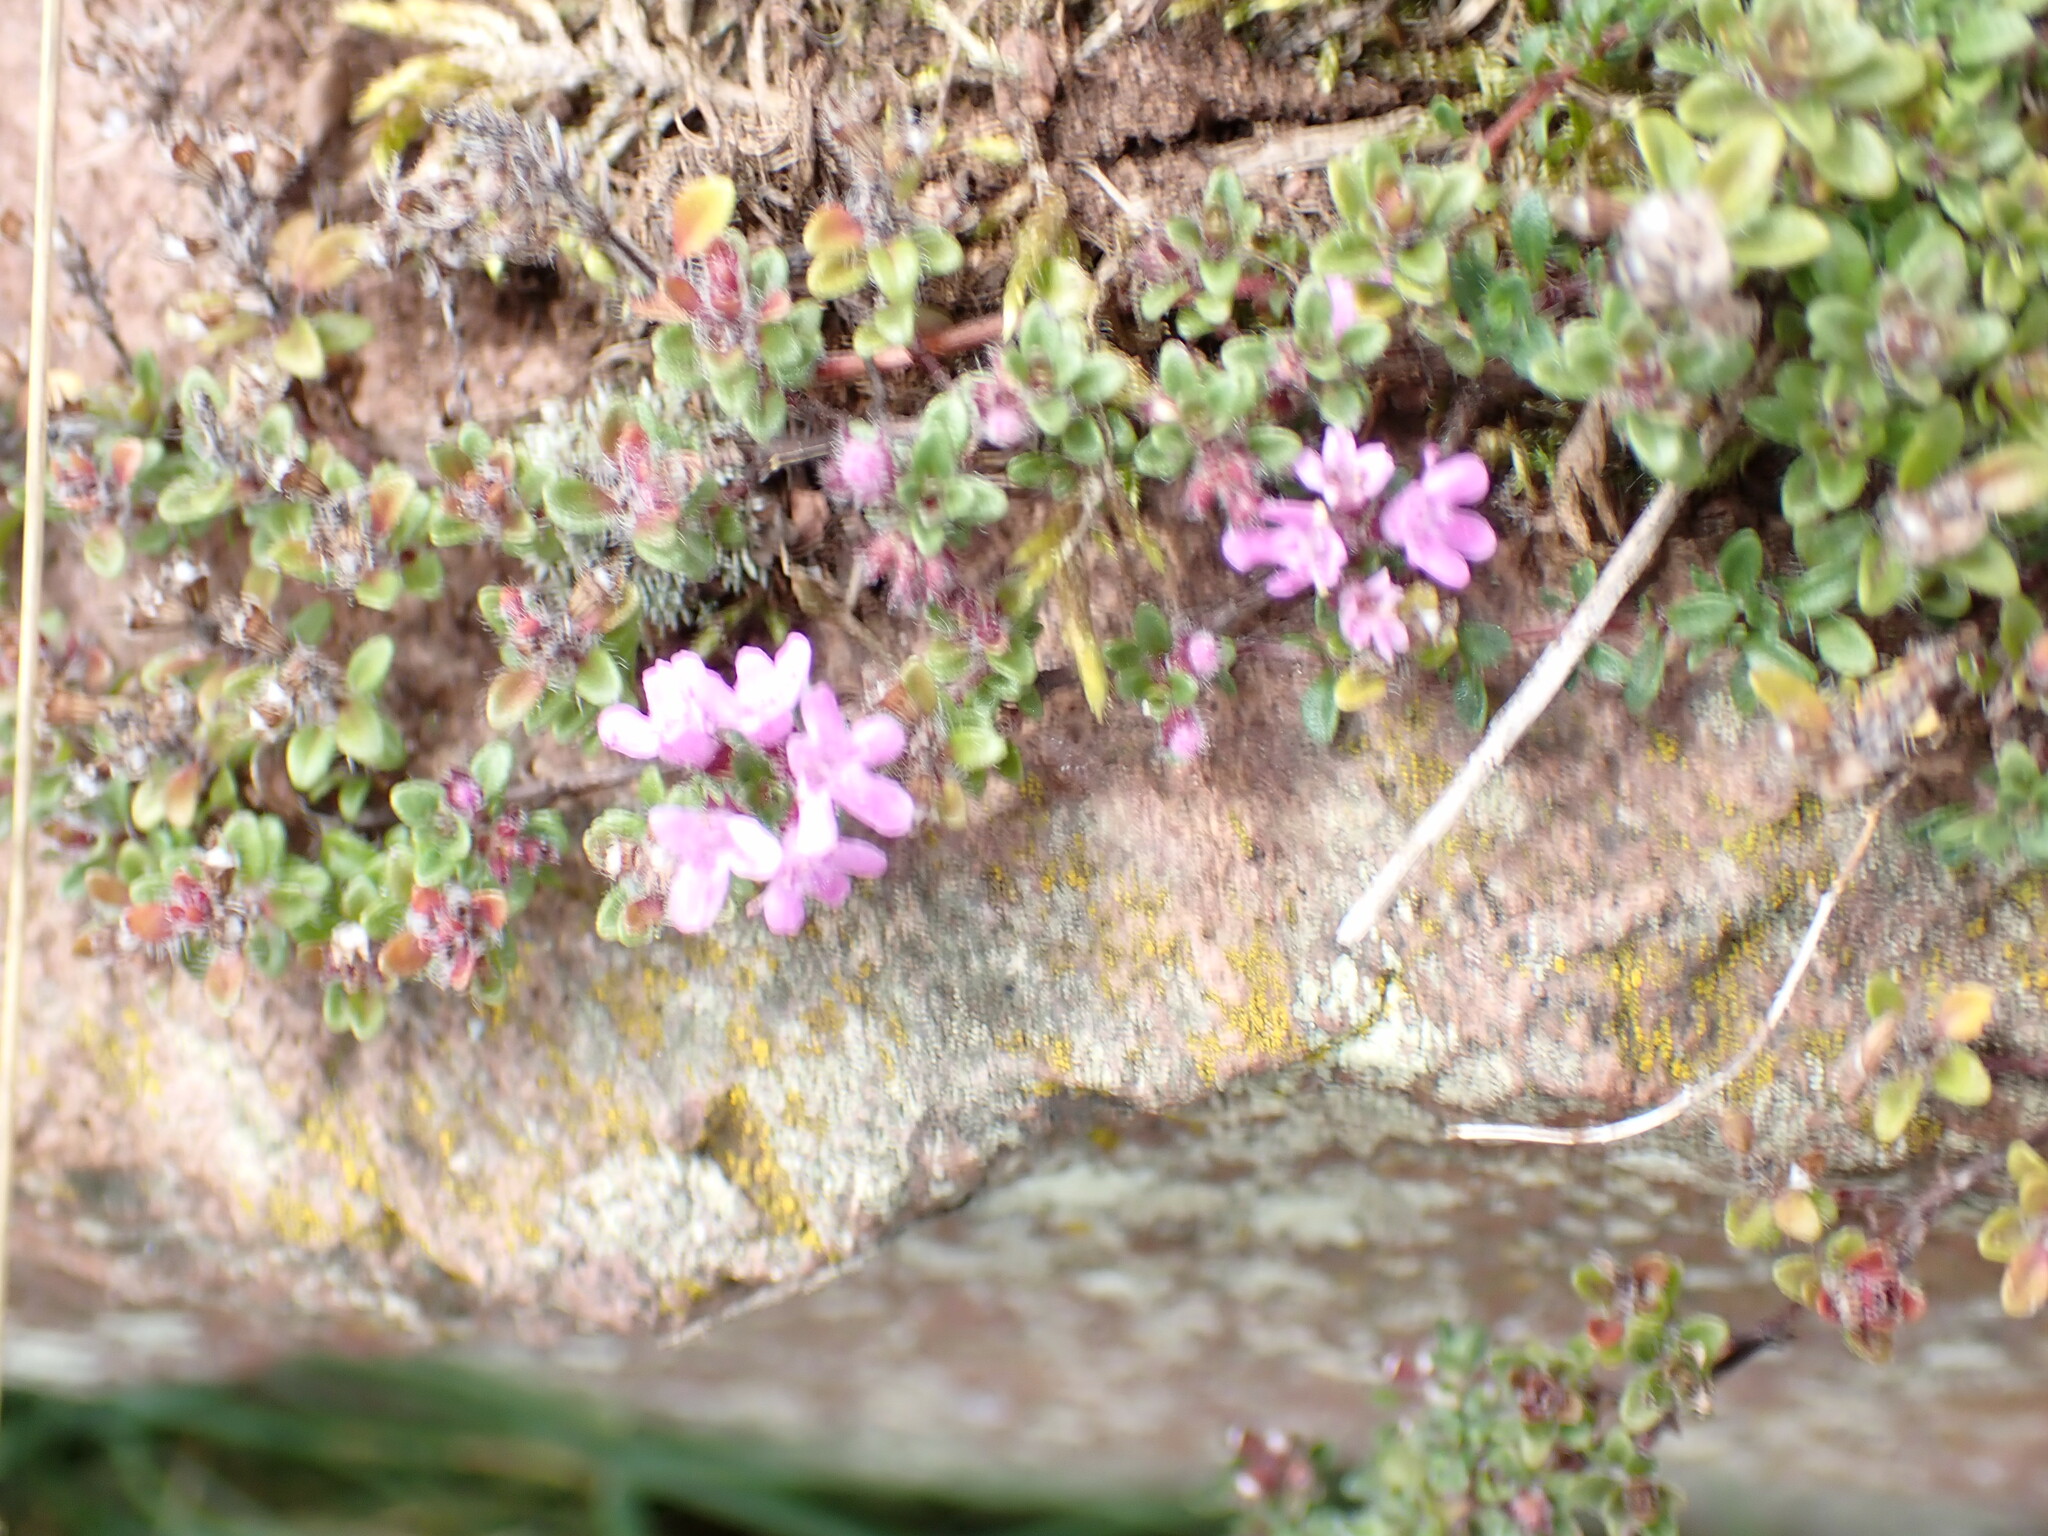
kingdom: Plantae
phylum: Tracheophyta
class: Magnoliopsida
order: Lamiales
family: Lamiaceae
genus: Thymus
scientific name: Thymus praecox
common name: Wild thyme
